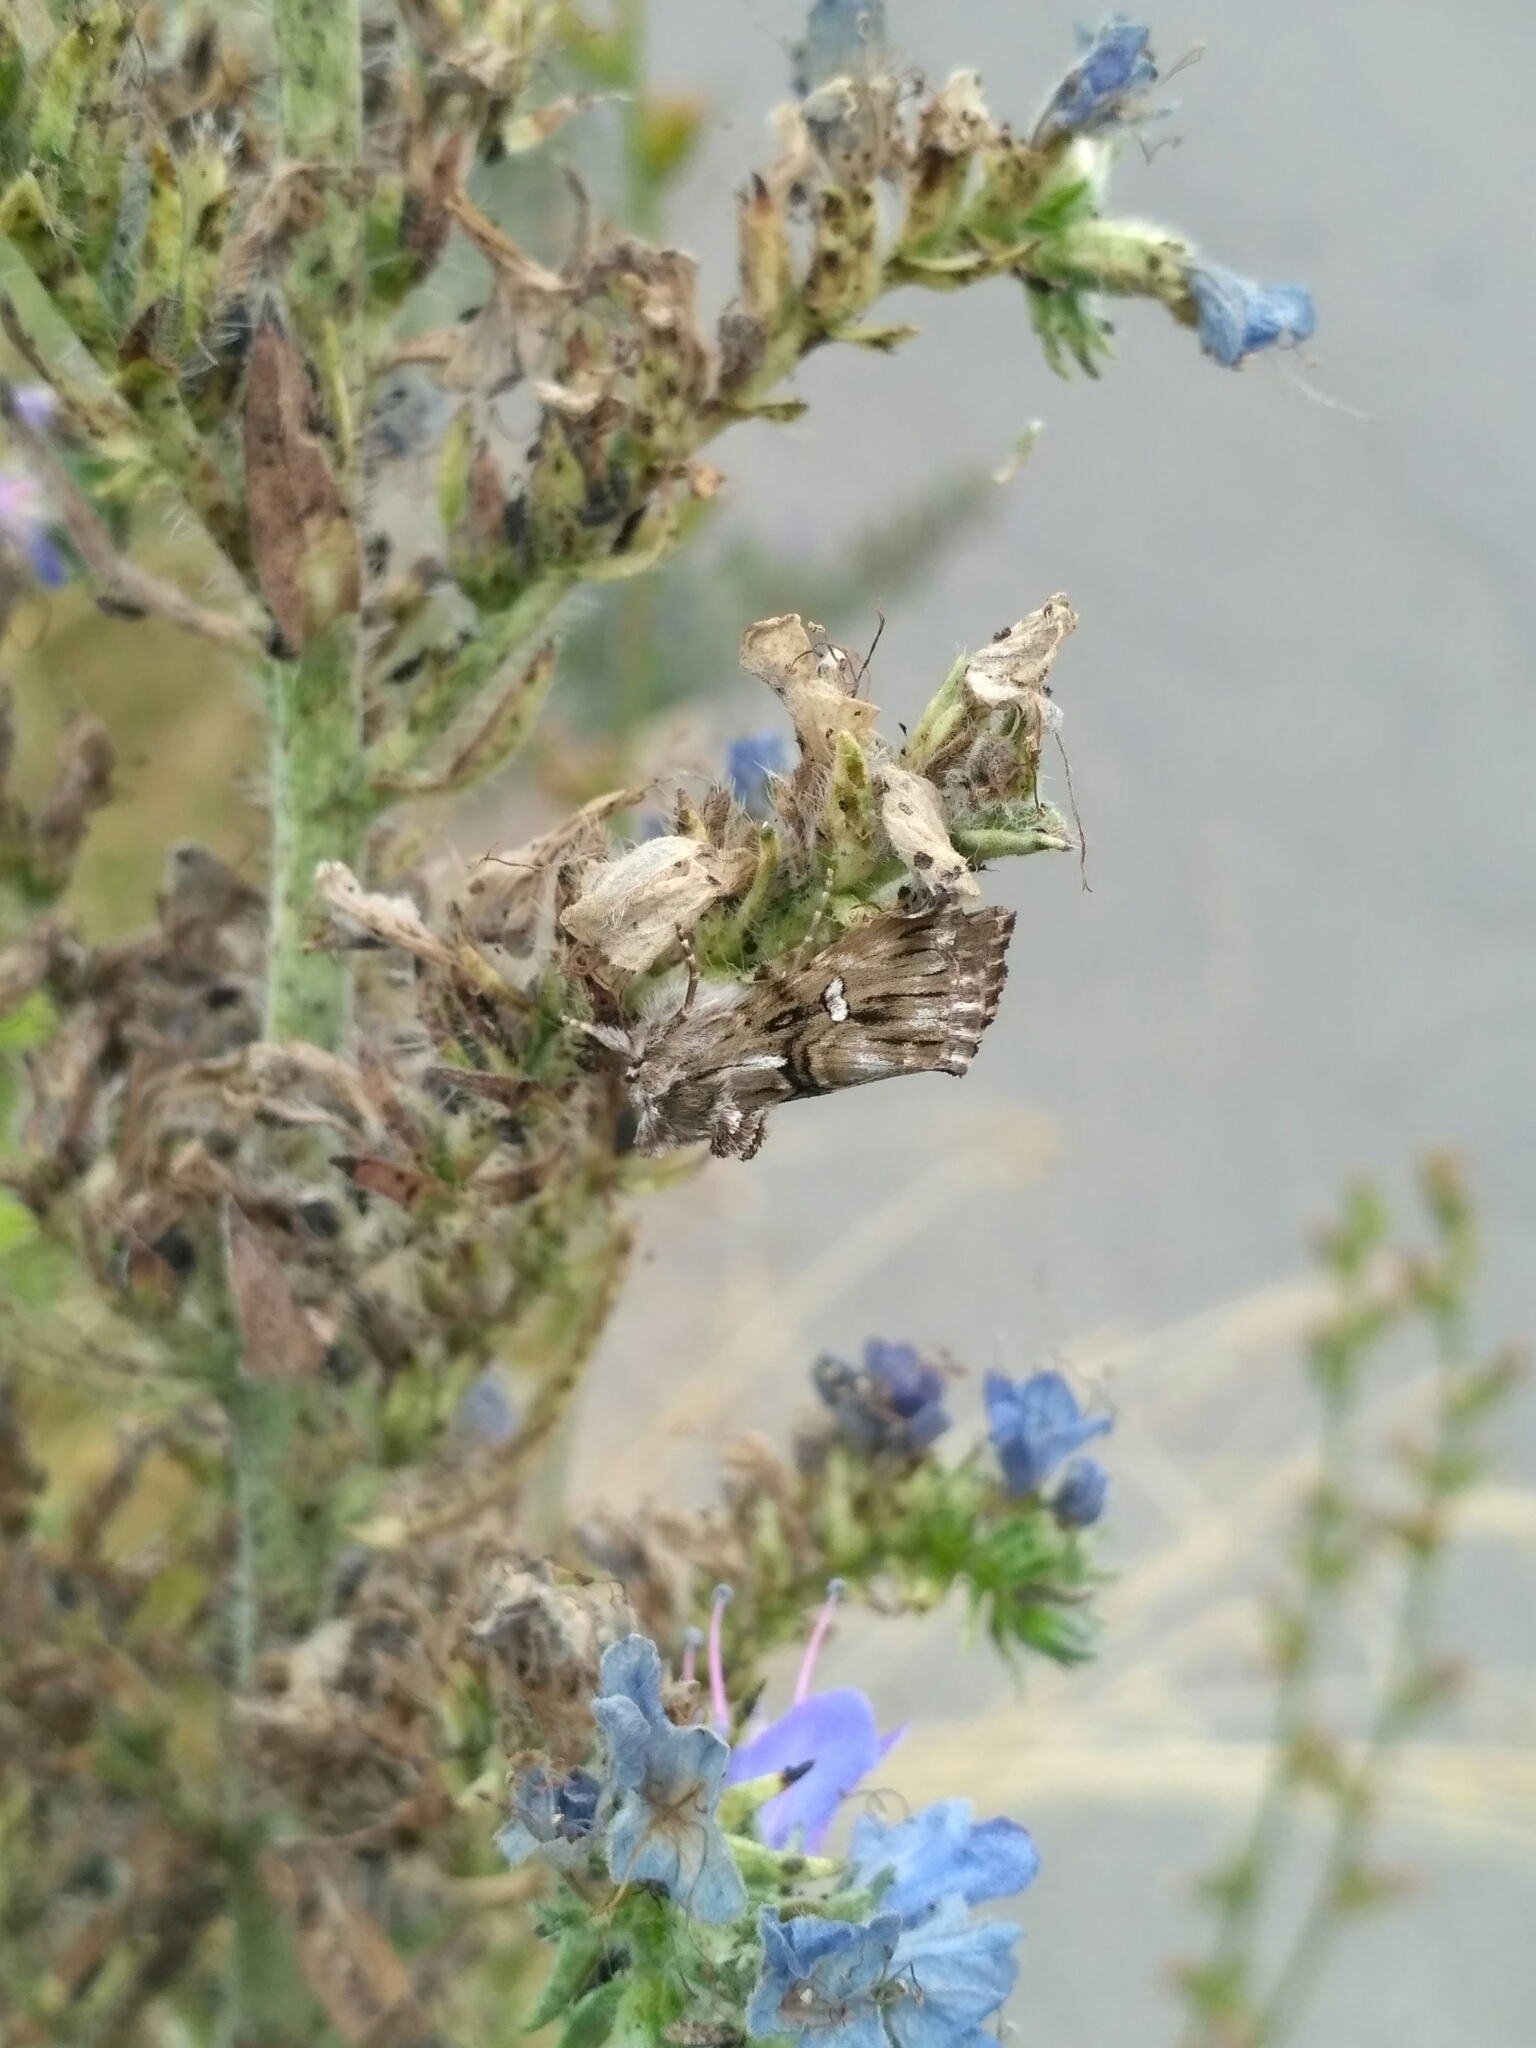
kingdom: Animalia
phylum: Arthropoda
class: Insecta
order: Lepidoptera
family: Noctuidae
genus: Calophasia
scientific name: Calophasia lunula
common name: Toadflax brocade
